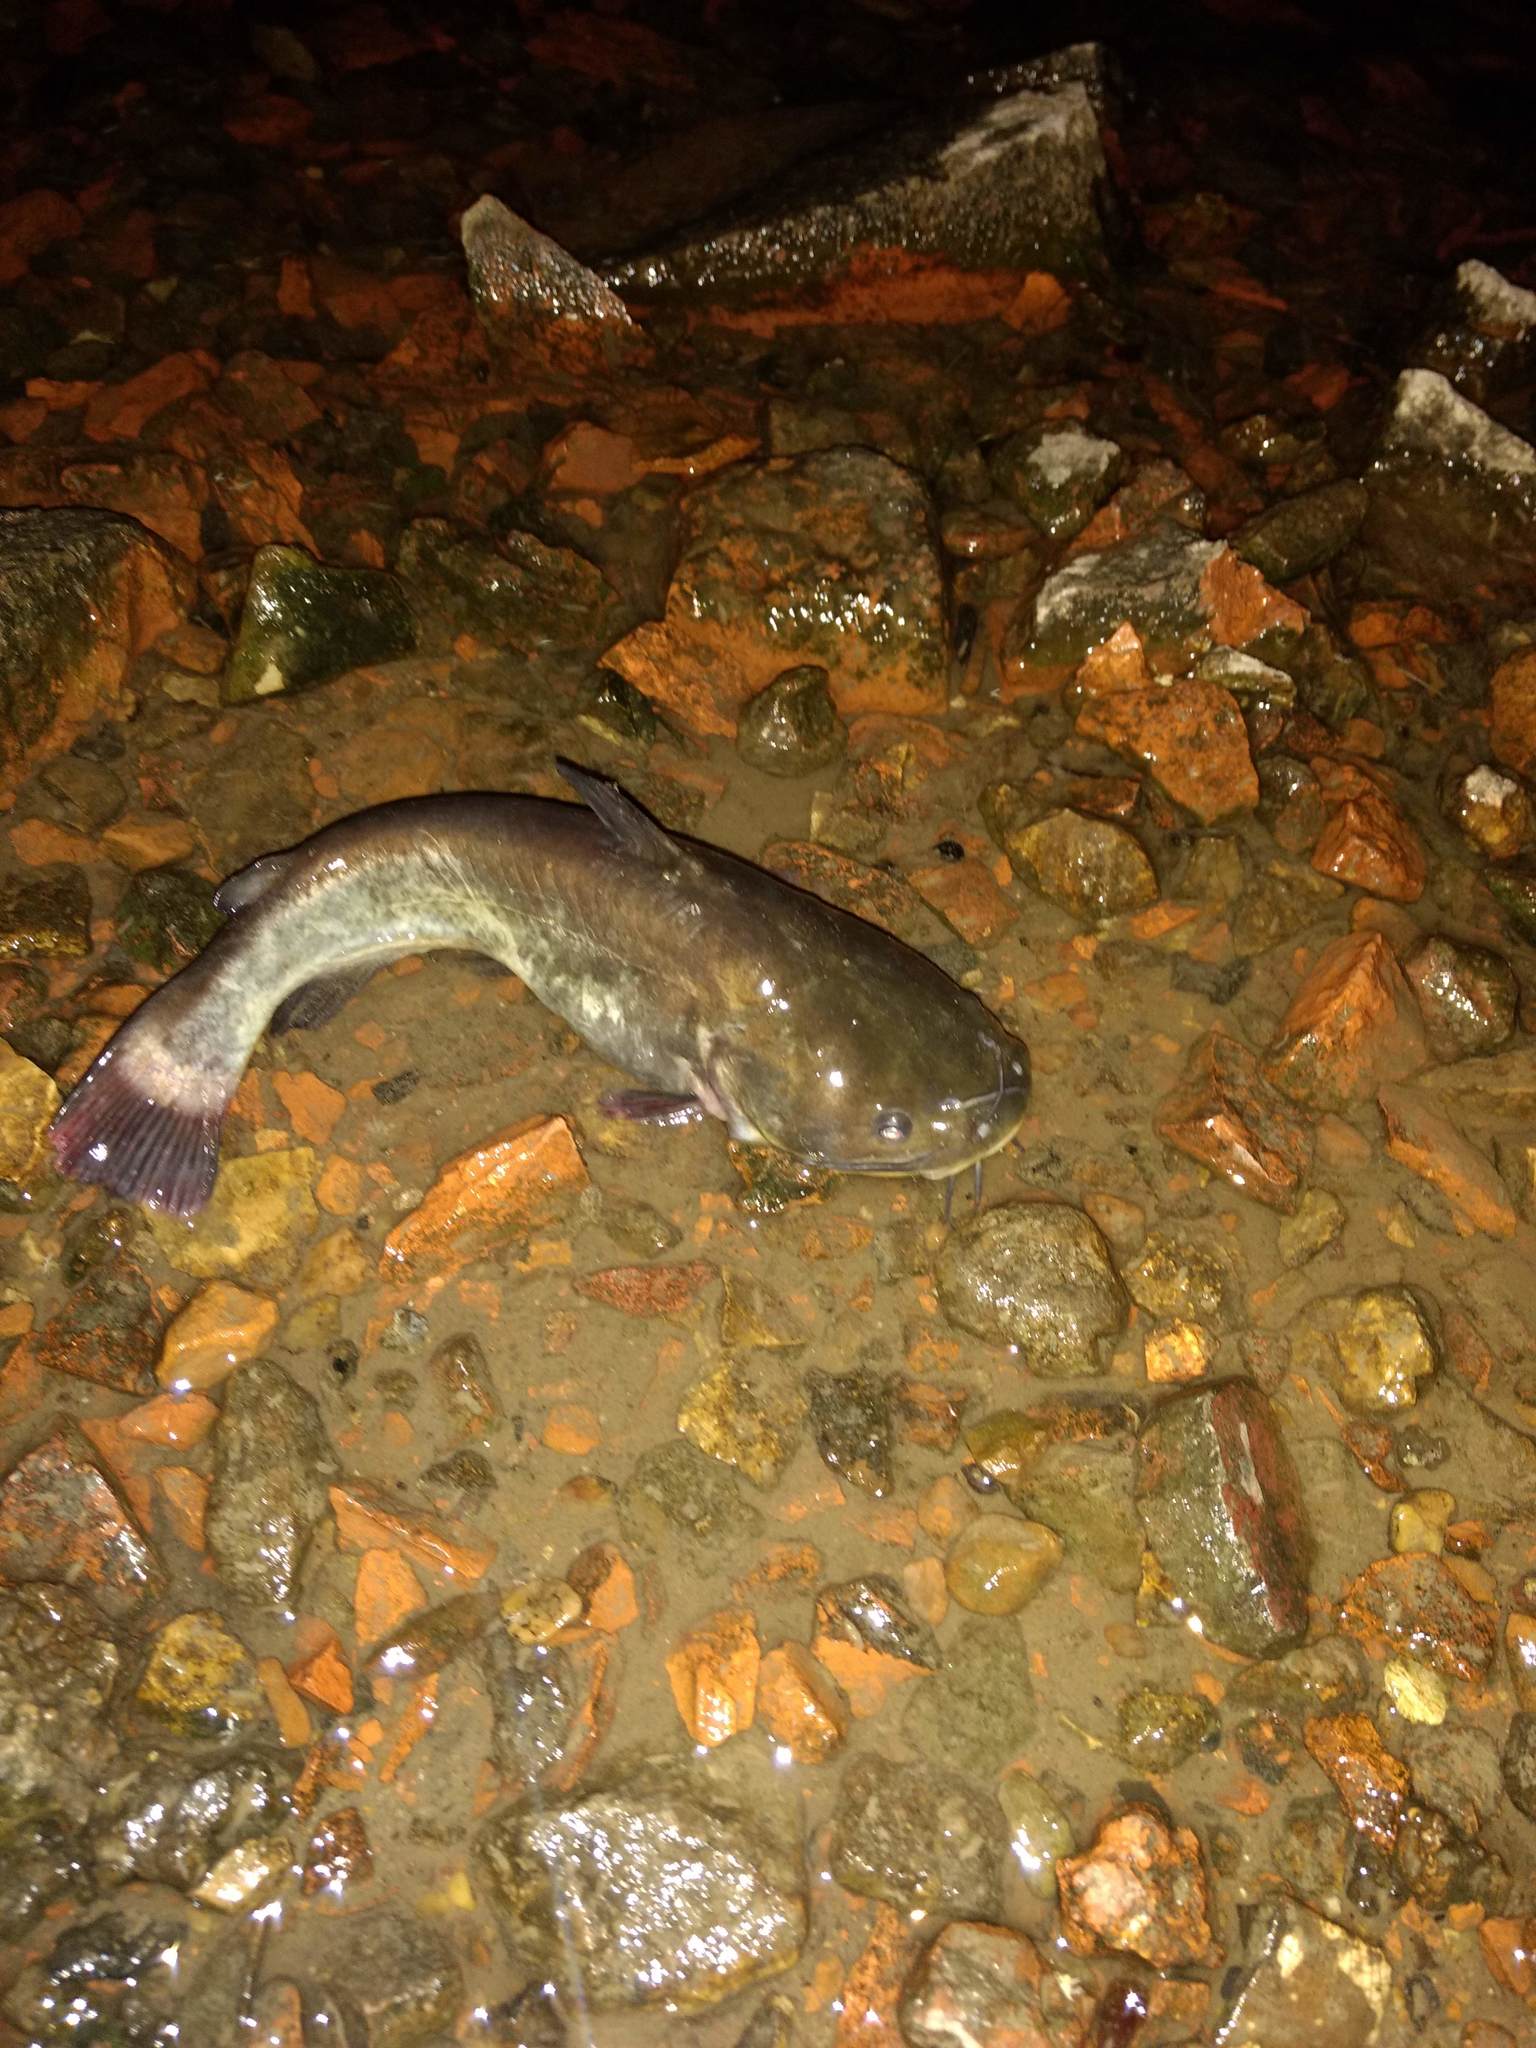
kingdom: Animalia
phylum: Chordata
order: Siluriformes
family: Ictaluridae
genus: Ameiurus
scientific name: Ameiurus melas
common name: Black bullhead
